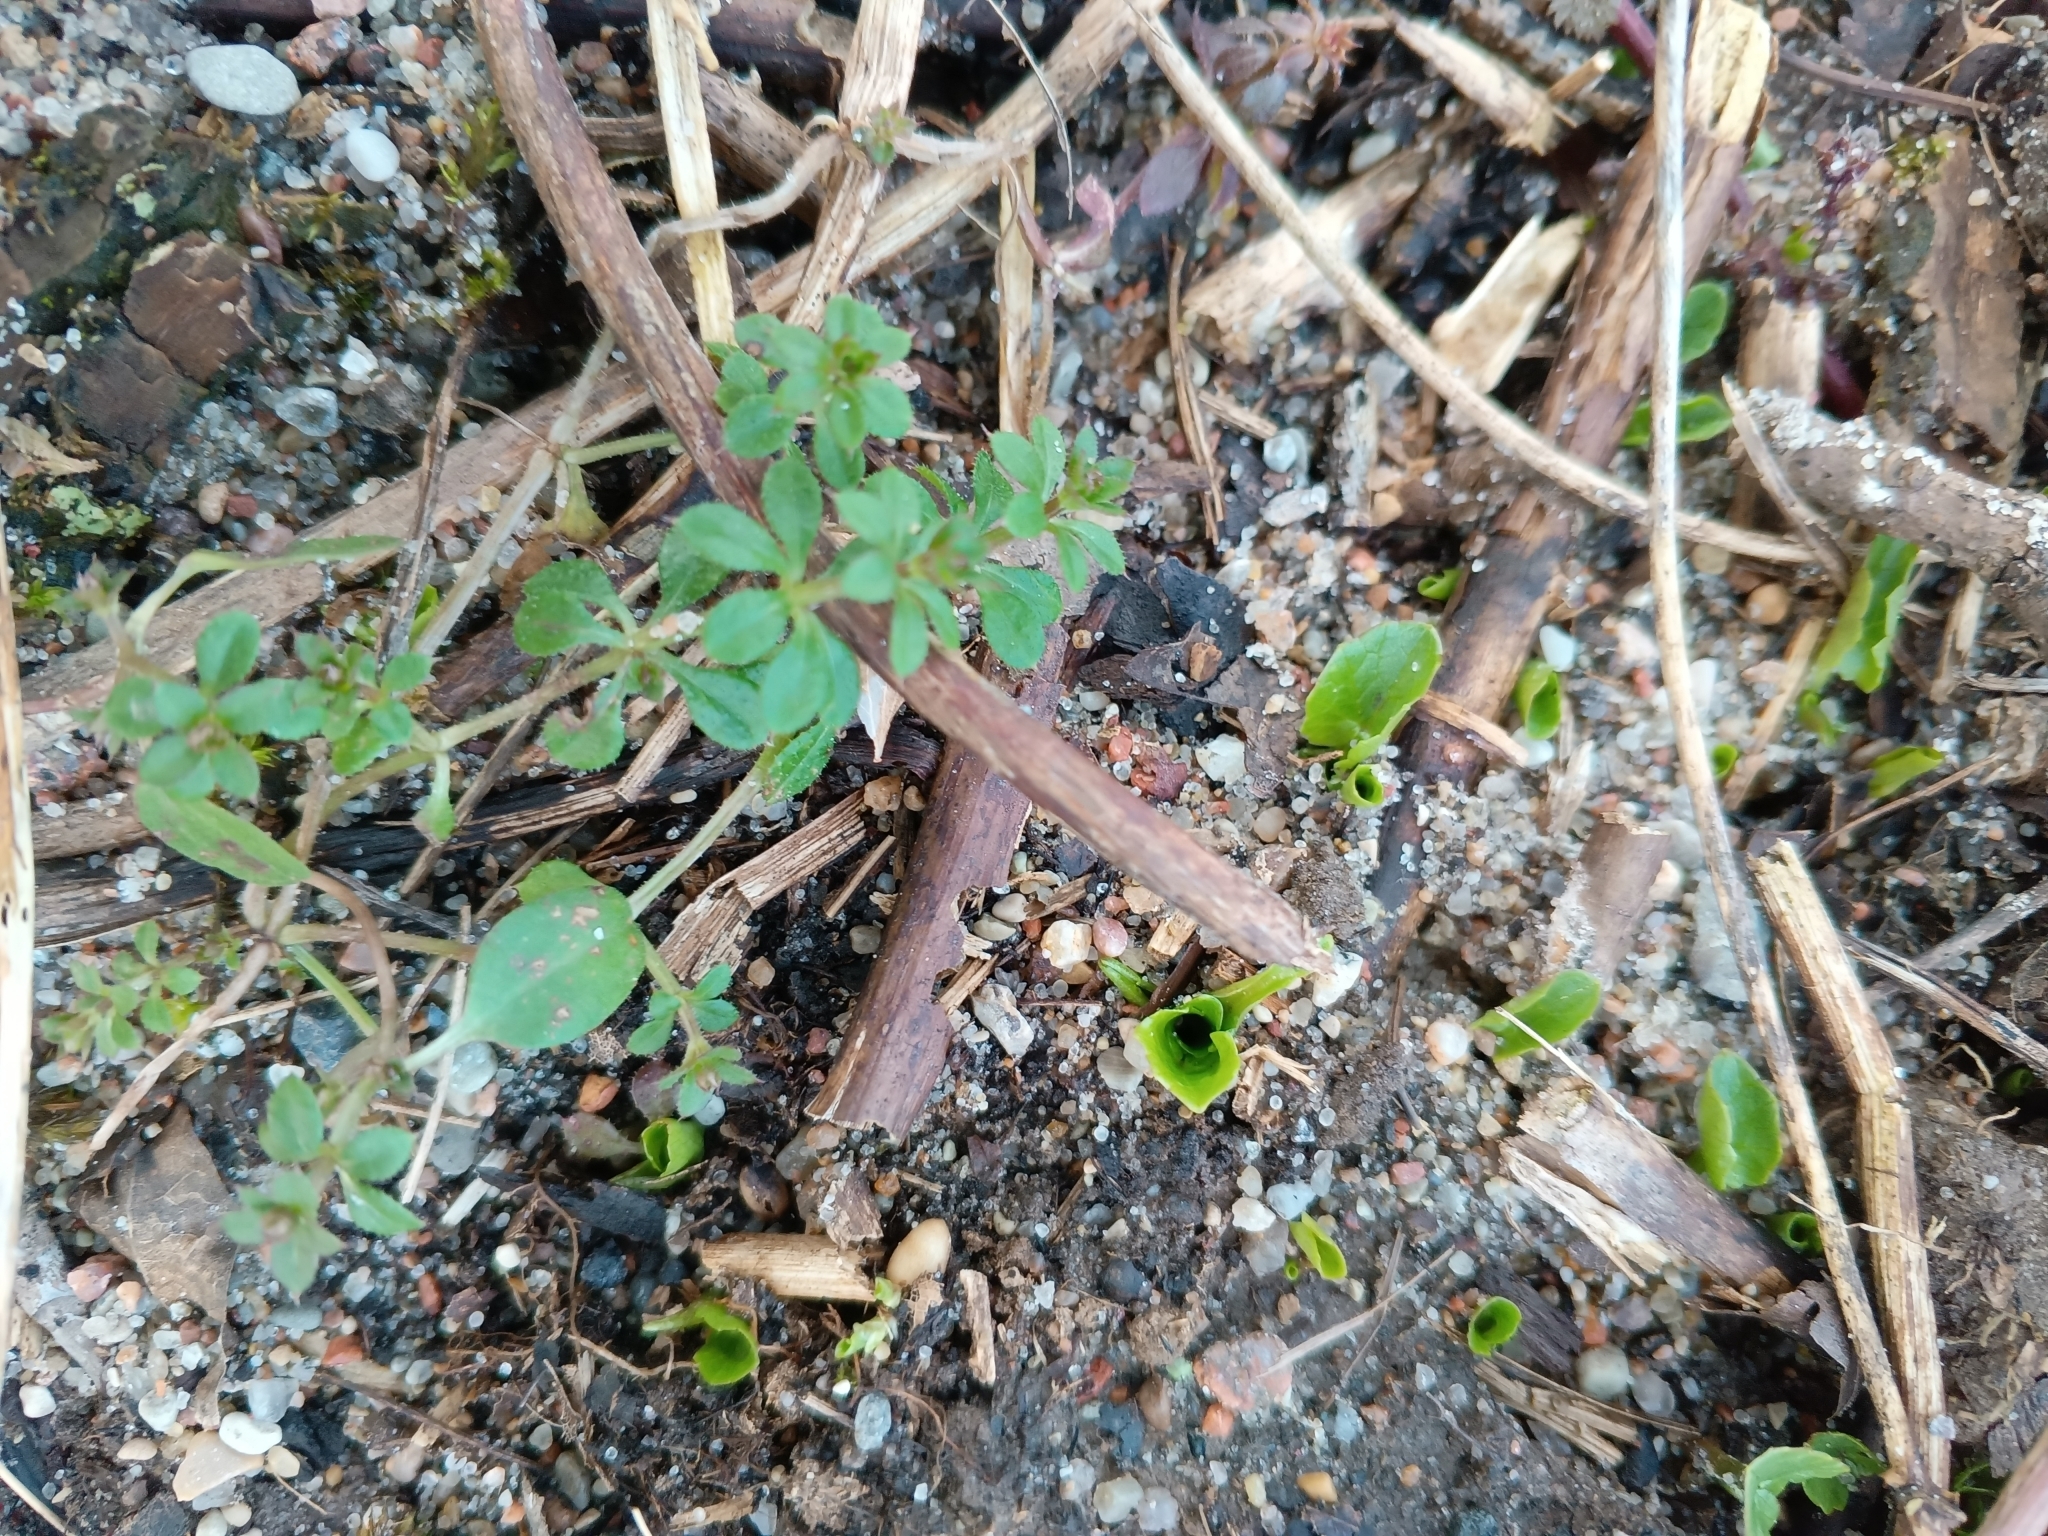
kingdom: Plantae
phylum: Tracheophyta
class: Magnoliopsida
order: Gentianales
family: Rubiaceae
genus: Galium
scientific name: Galium aparine
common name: Cleavers
